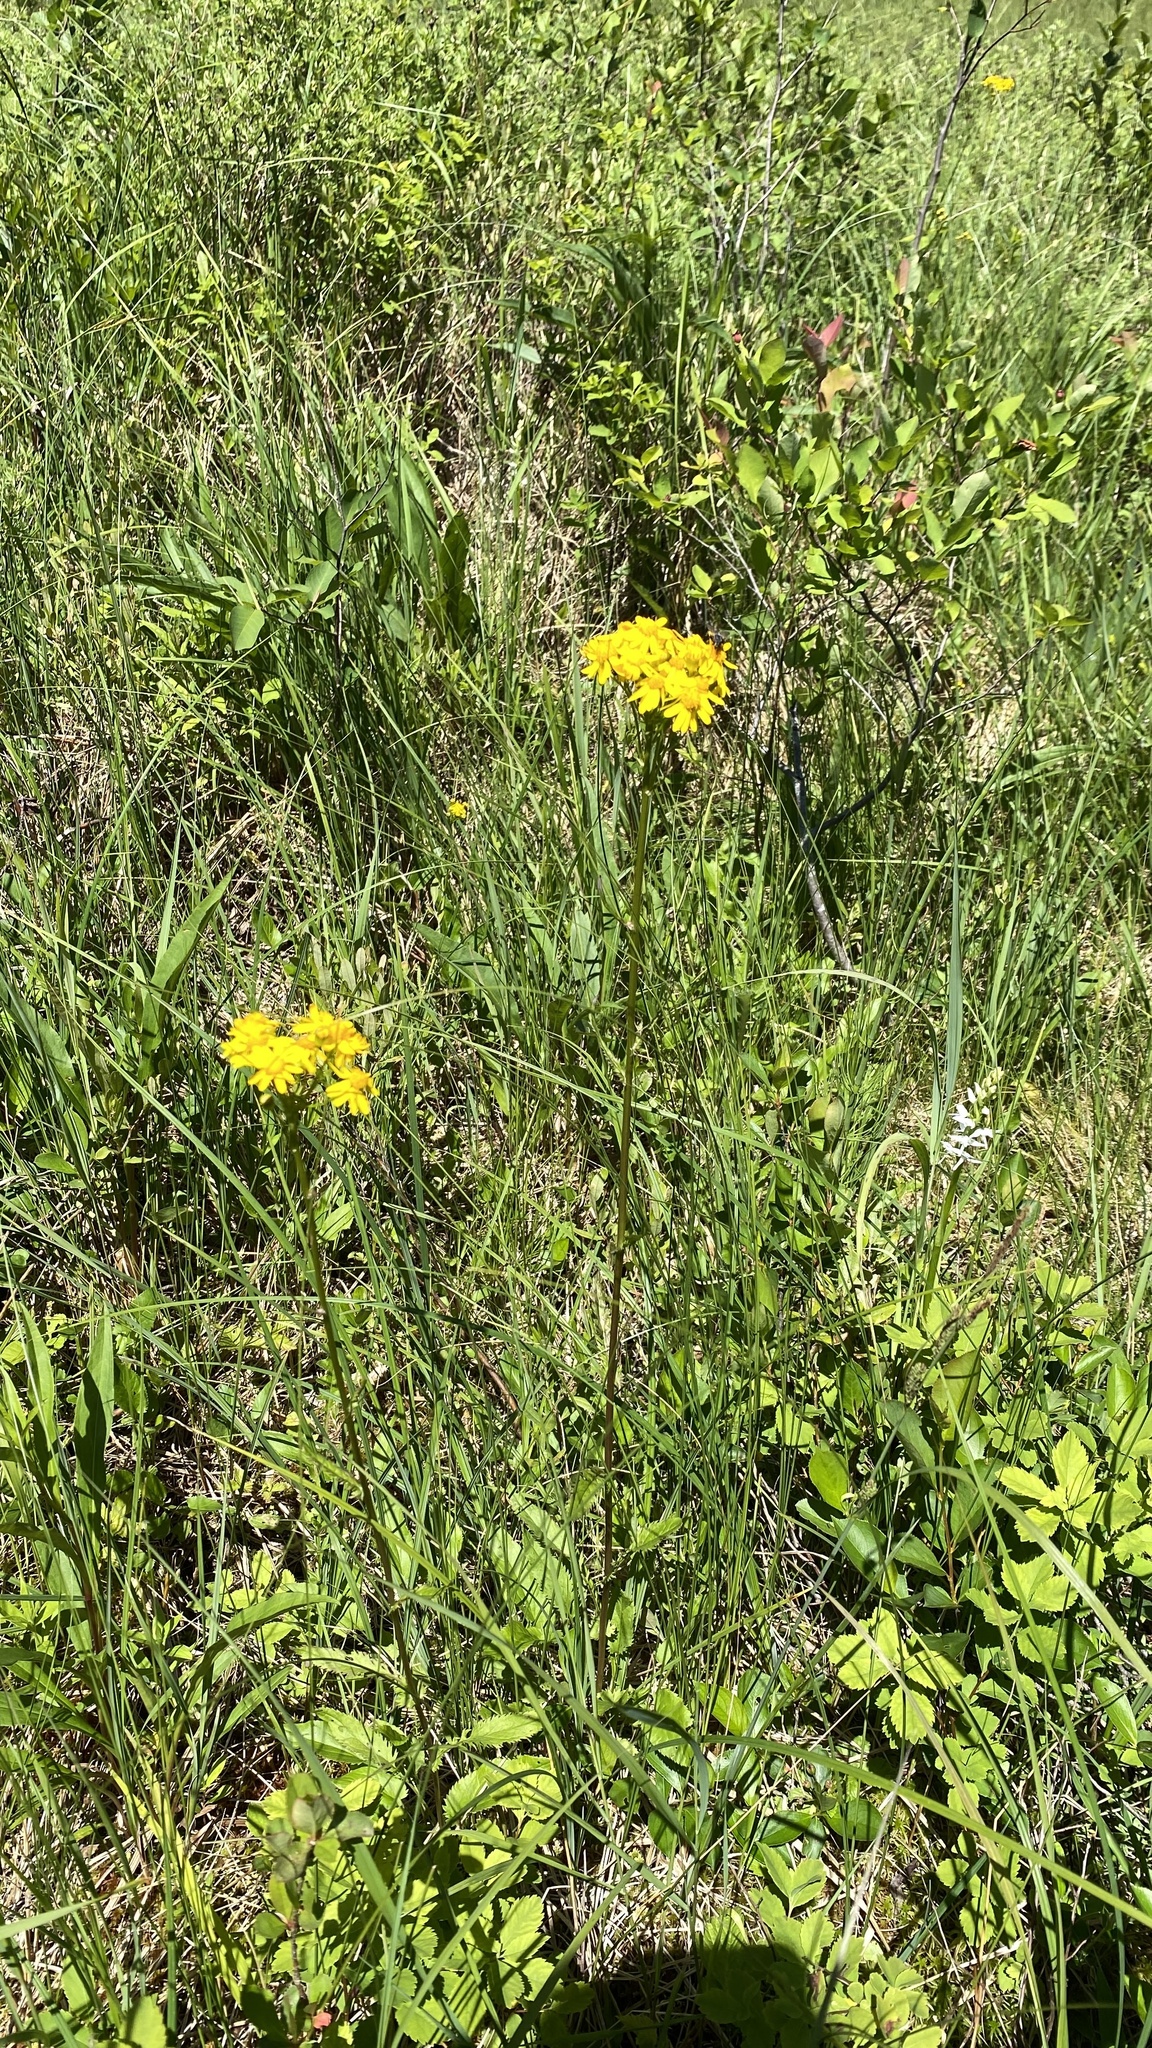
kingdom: Plantae
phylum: Tracheophyta
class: Magnoliopsida
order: Asterales
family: Asteraceae
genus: Packera
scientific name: Packera schweinitziana
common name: Schweinitz's ragwort
